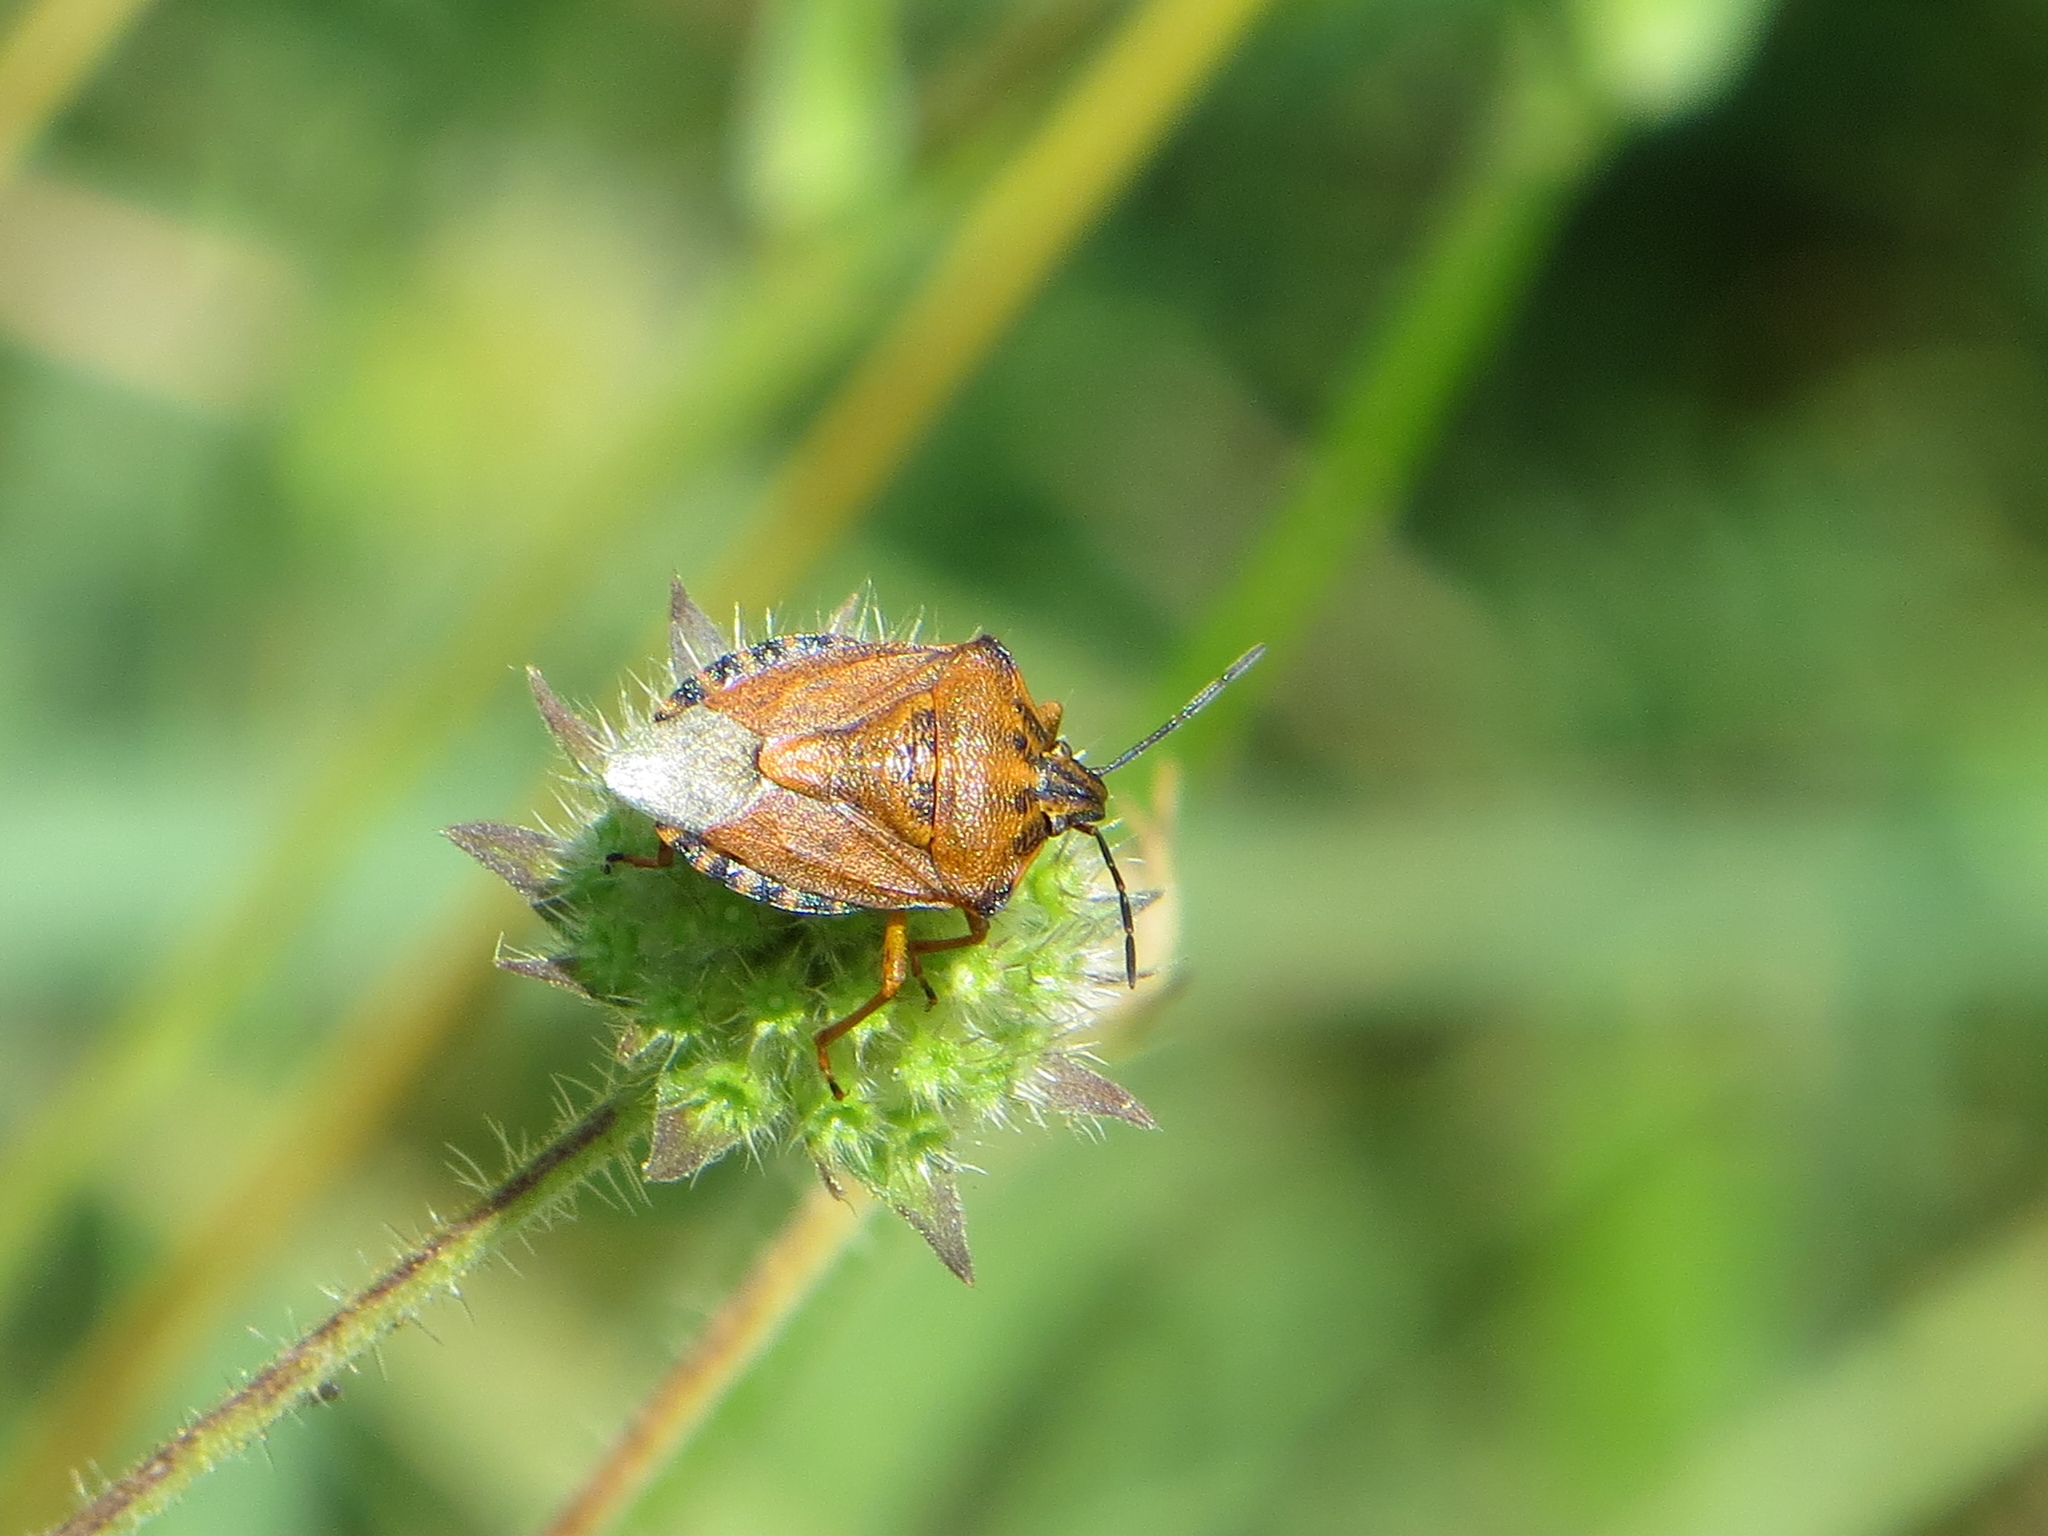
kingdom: Animalia
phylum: Arthropoda
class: Insecta
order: Hemiptera
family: Pentatomidae
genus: Carpocoris
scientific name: Carpocoris purpureipennis
